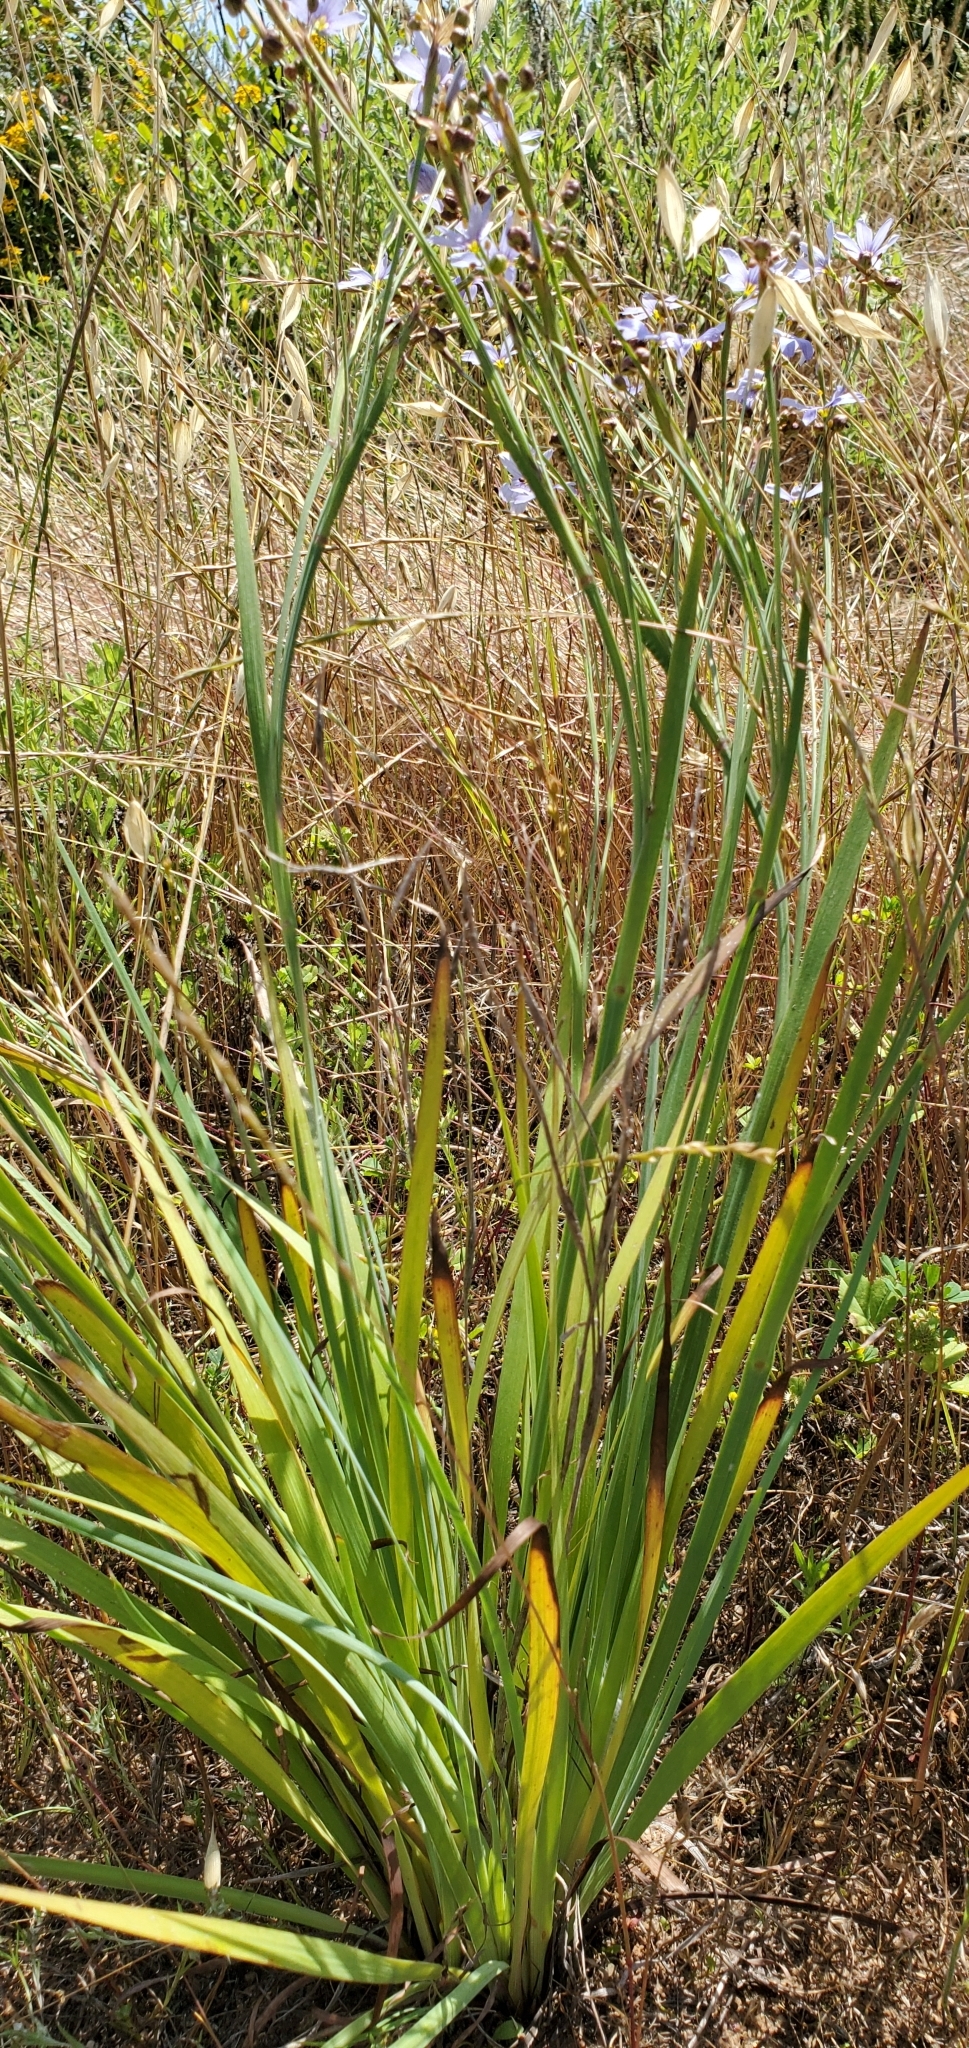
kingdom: Plantae
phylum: Tracheophyta
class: Liliopsida
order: Asparagales
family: Iridaceae
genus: Sisyrinchium
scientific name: Sisyrinchium bellum
